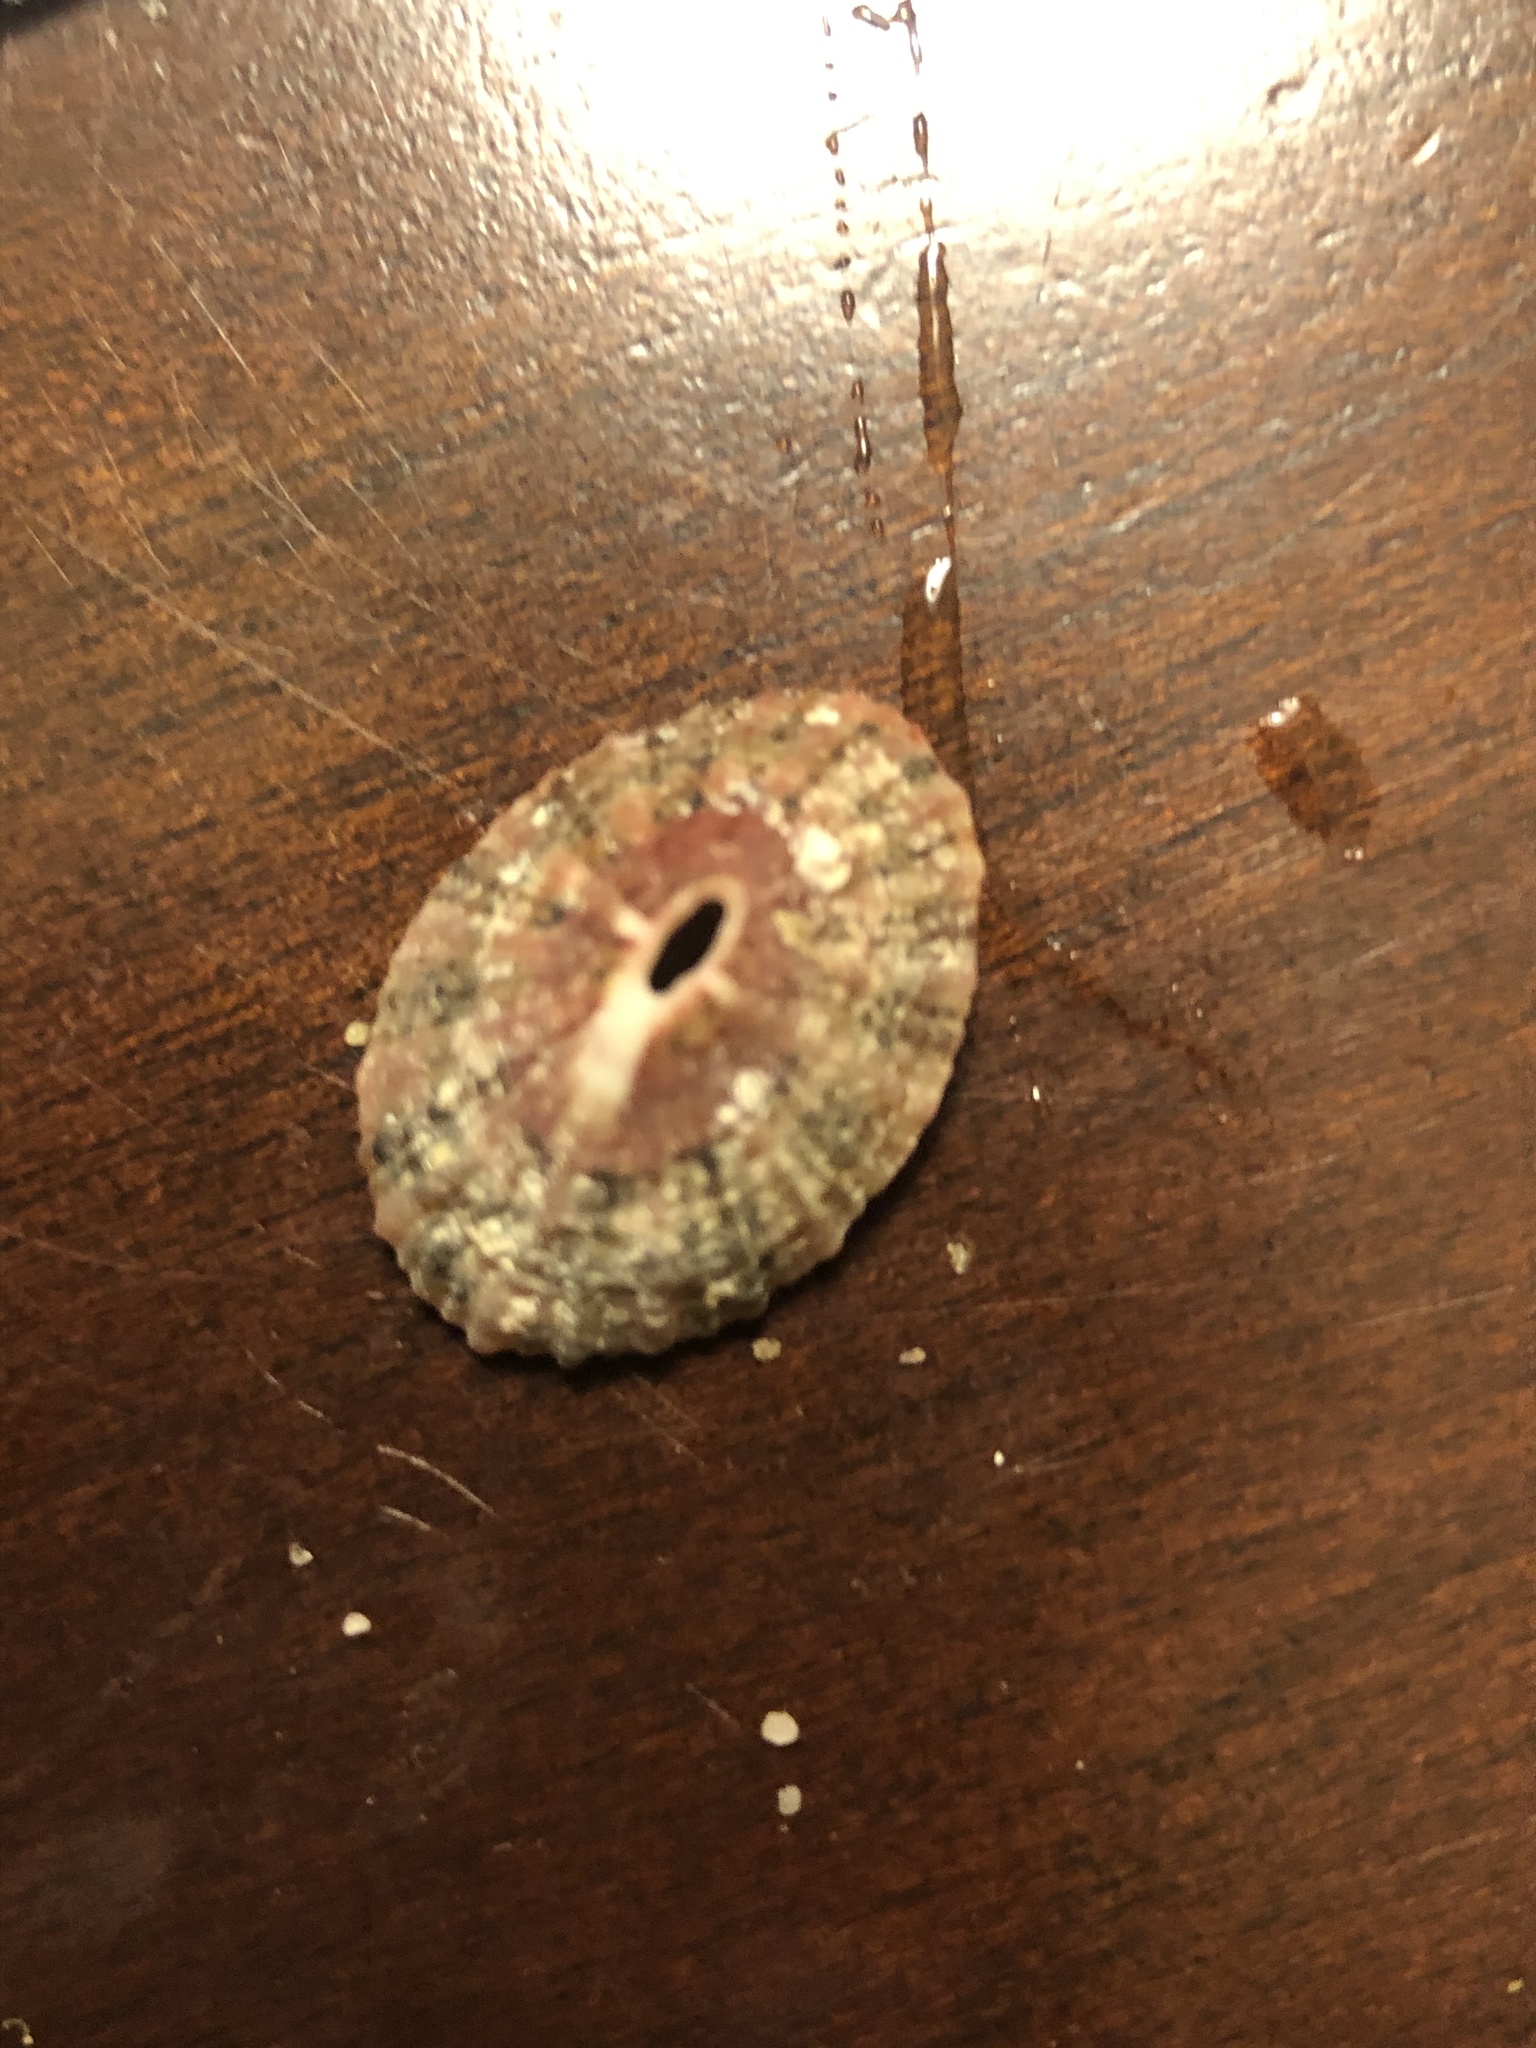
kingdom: Animalia
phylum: Mollusca
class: Gastropoda
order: Lepetellida
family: Fissurellidae
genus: Fissurella
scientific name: Fissurella volcano
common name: Volcano keyhole limpet
